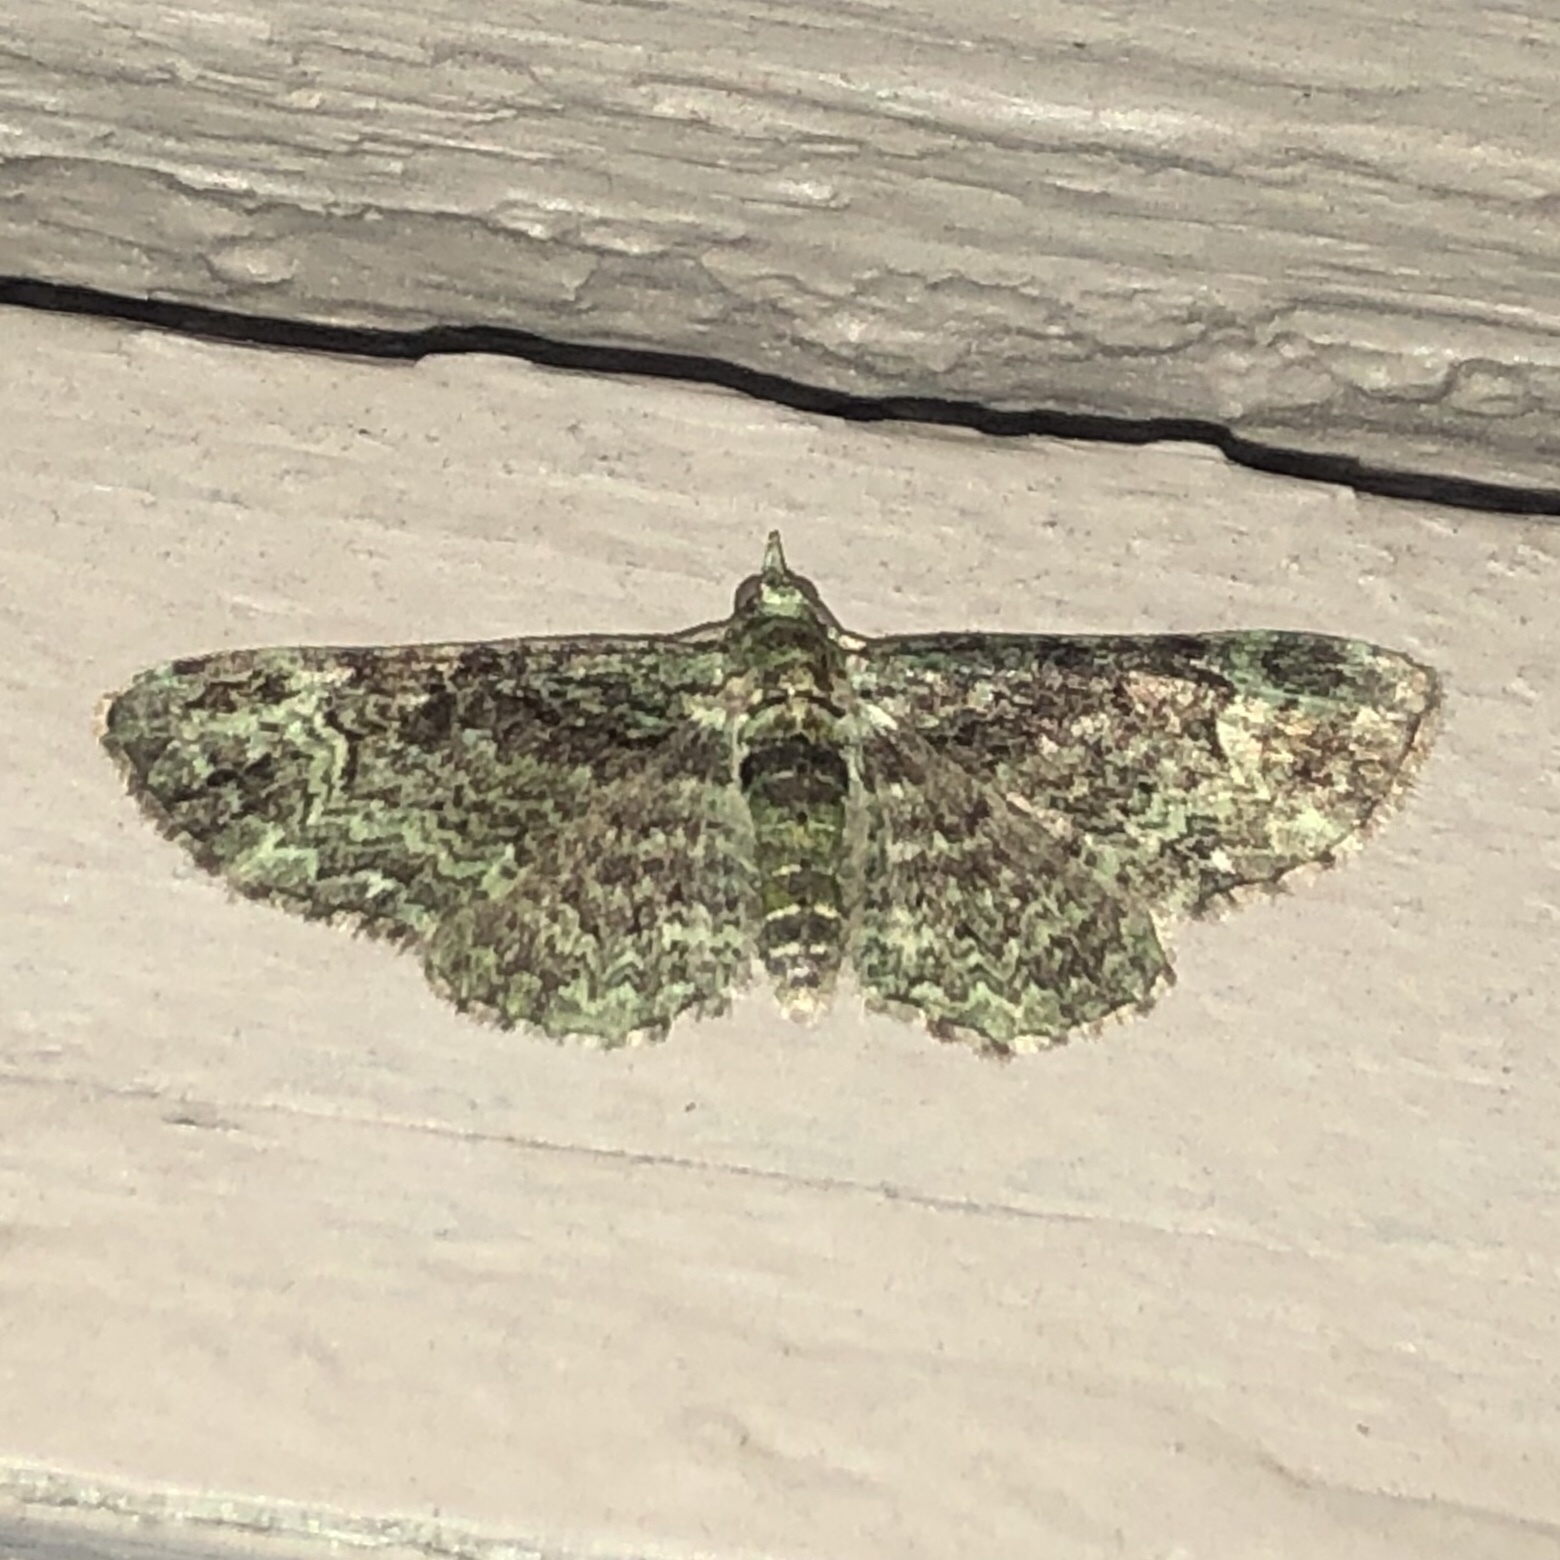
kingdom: Animalia
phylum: Arthropoda
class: Insecta
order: Lepidoptera
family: Geometridae
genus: Pasiphila
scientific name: Pasiphila rectangulata
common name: Green pug
